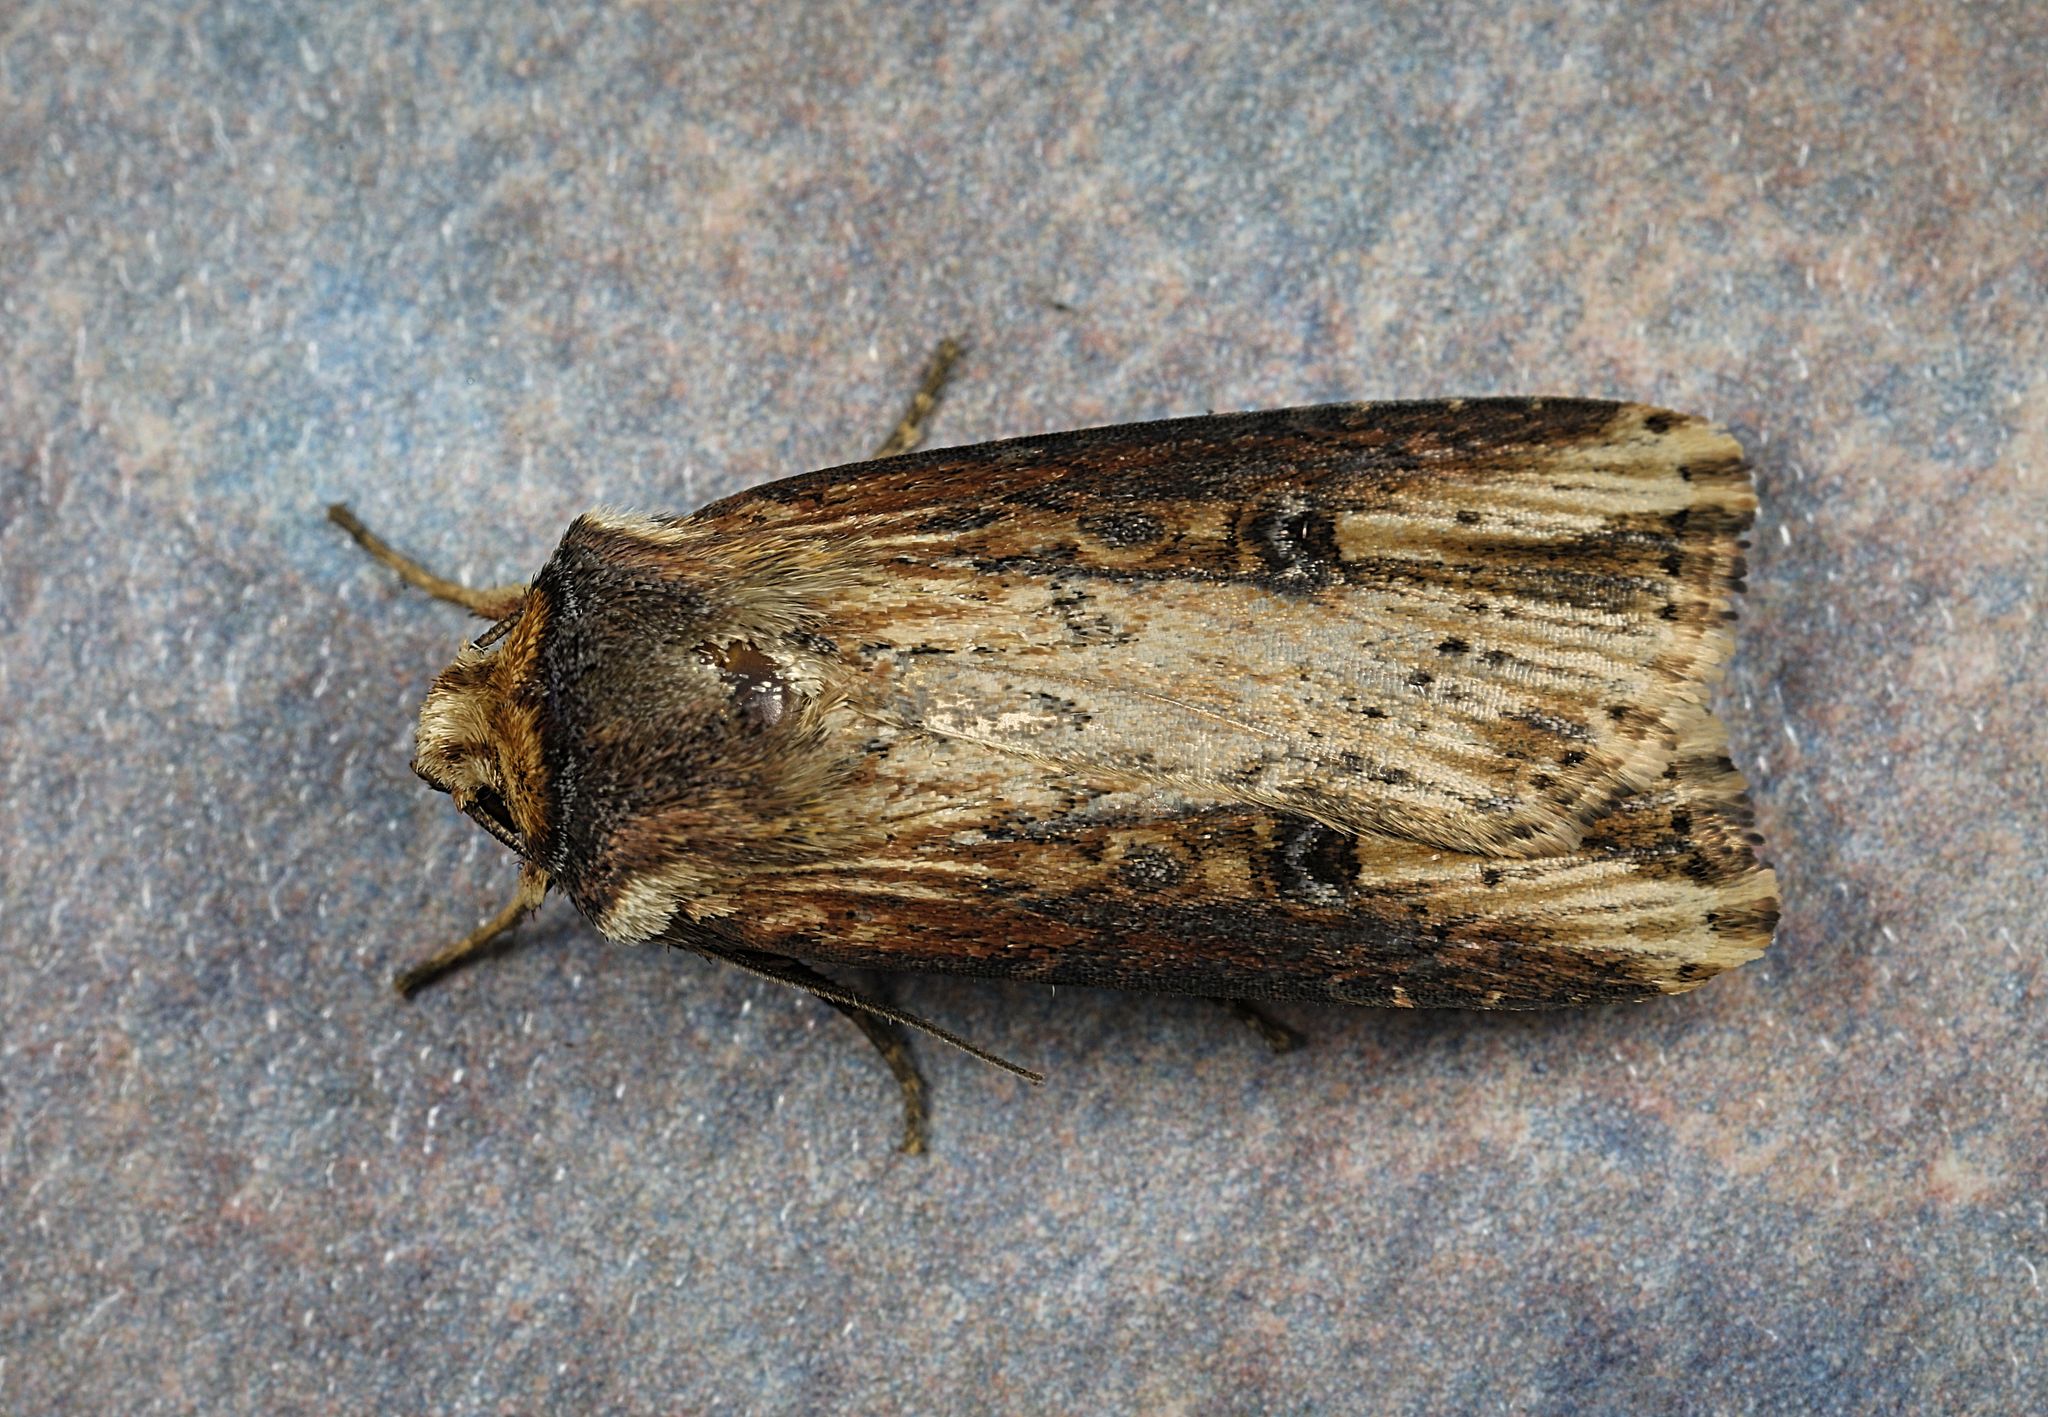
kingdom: Animalia
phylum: Arthropoda
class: Insecta
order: Lepidoptera
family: Noctuidae
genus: Axylia
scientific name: Axylia putris
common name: Flame
